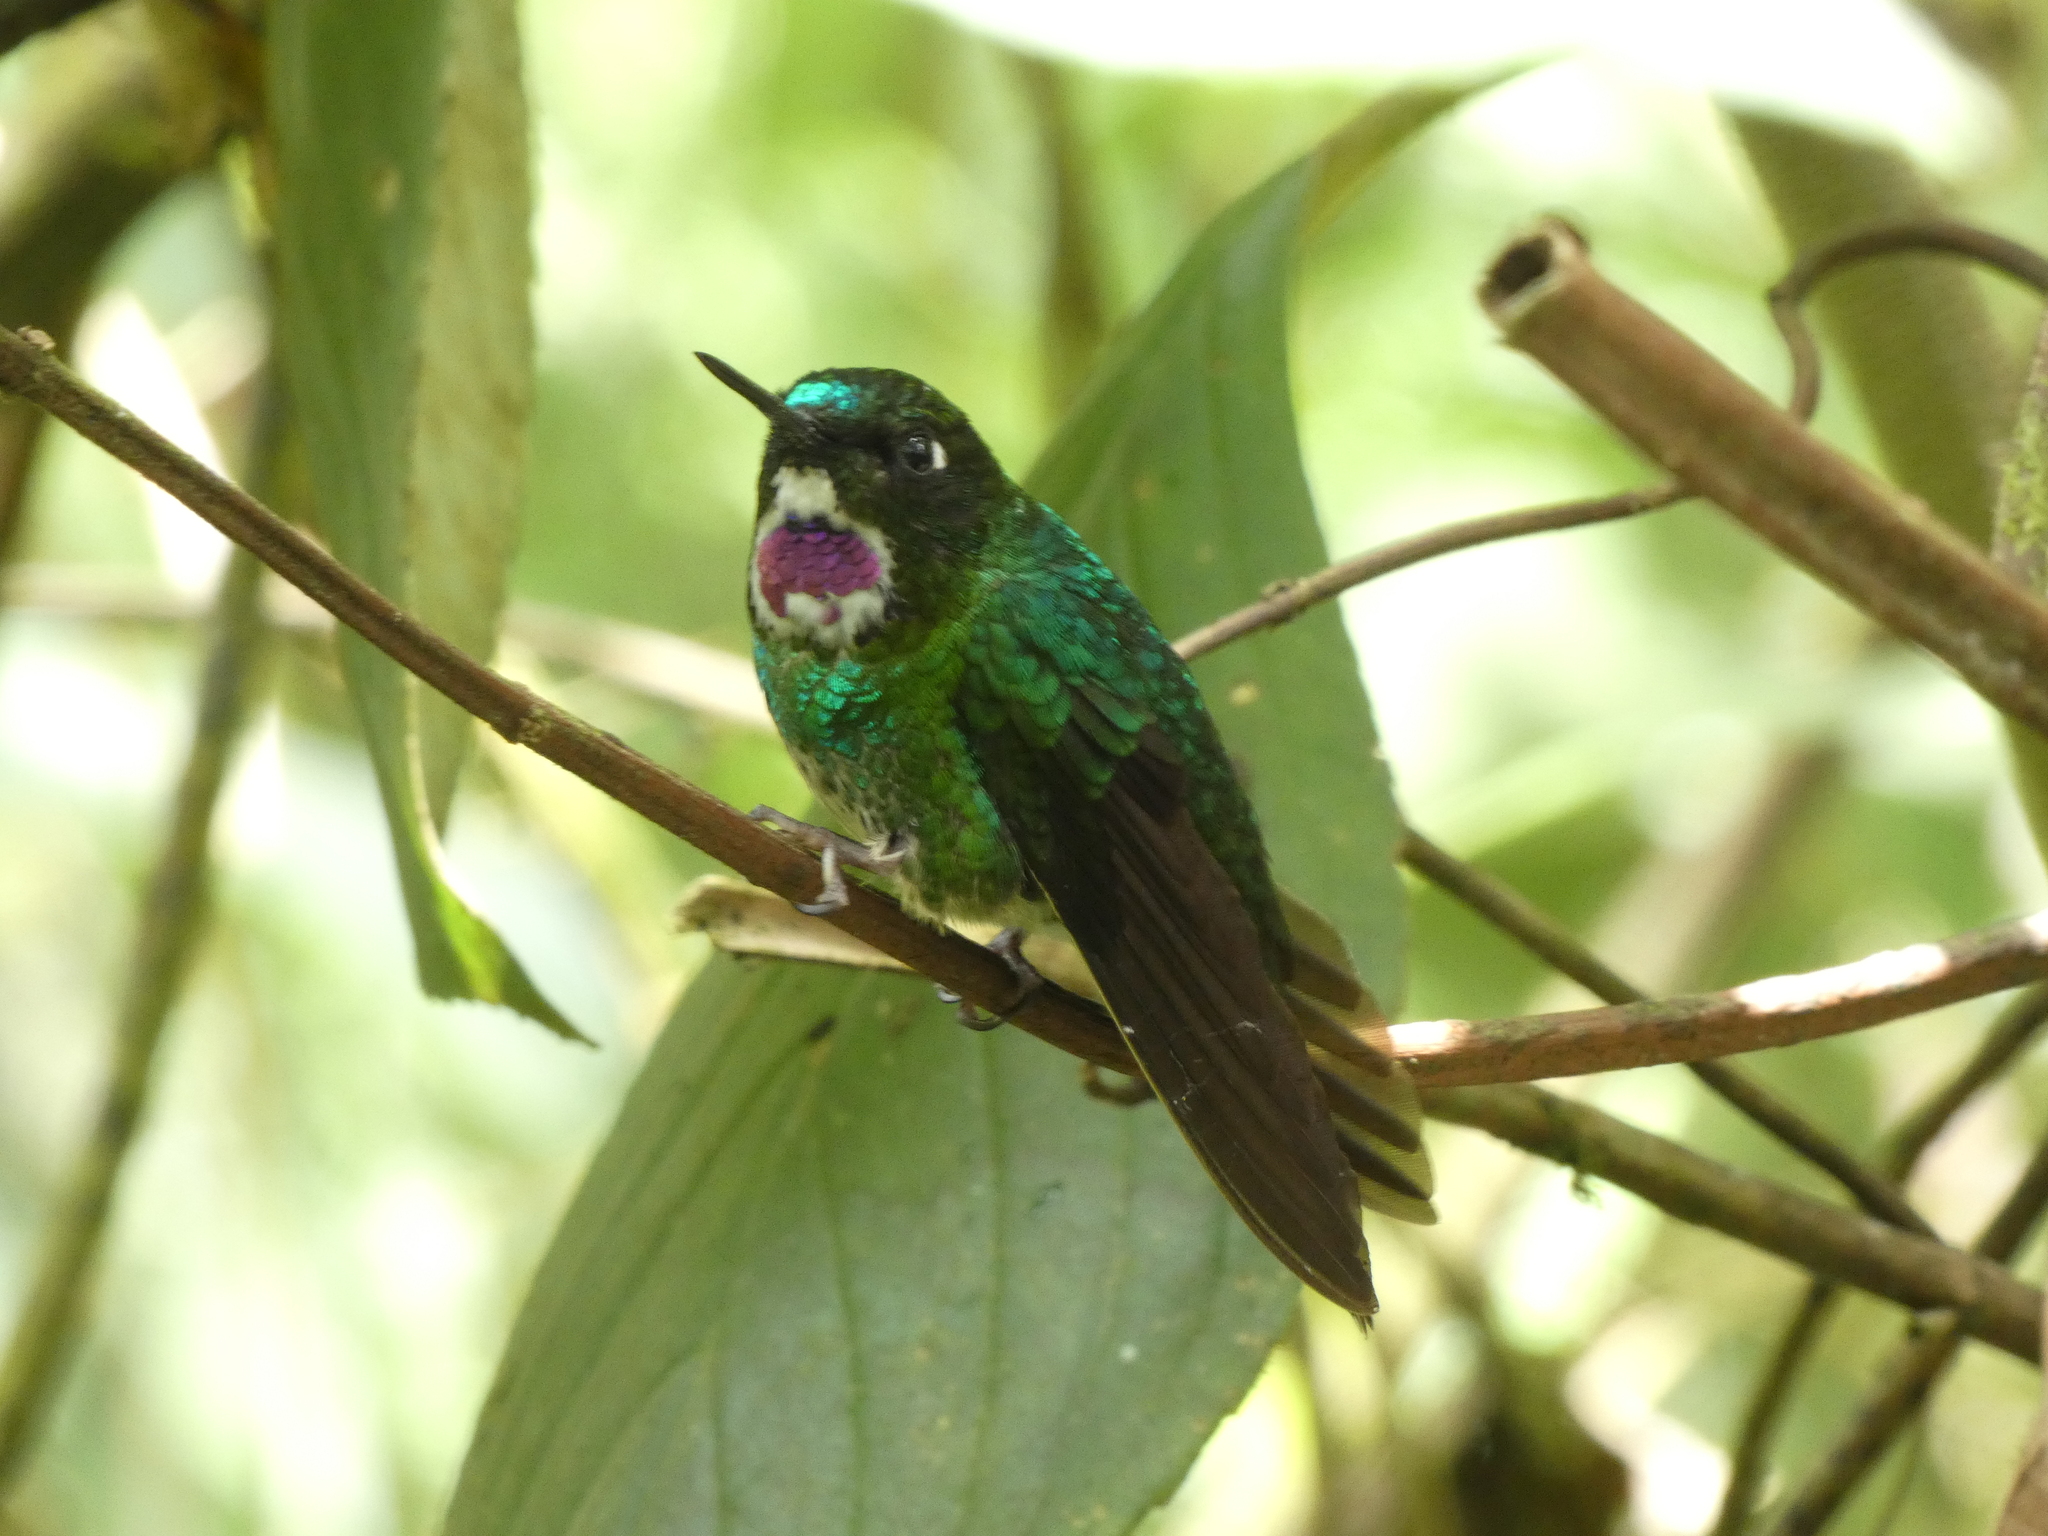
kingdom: Animalia
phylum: Chordata
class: Aves
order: Apodiformes
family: Trochilidae
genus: Heliangelus
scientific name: Heliangelus exortis
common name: Tourmaline sunangel
